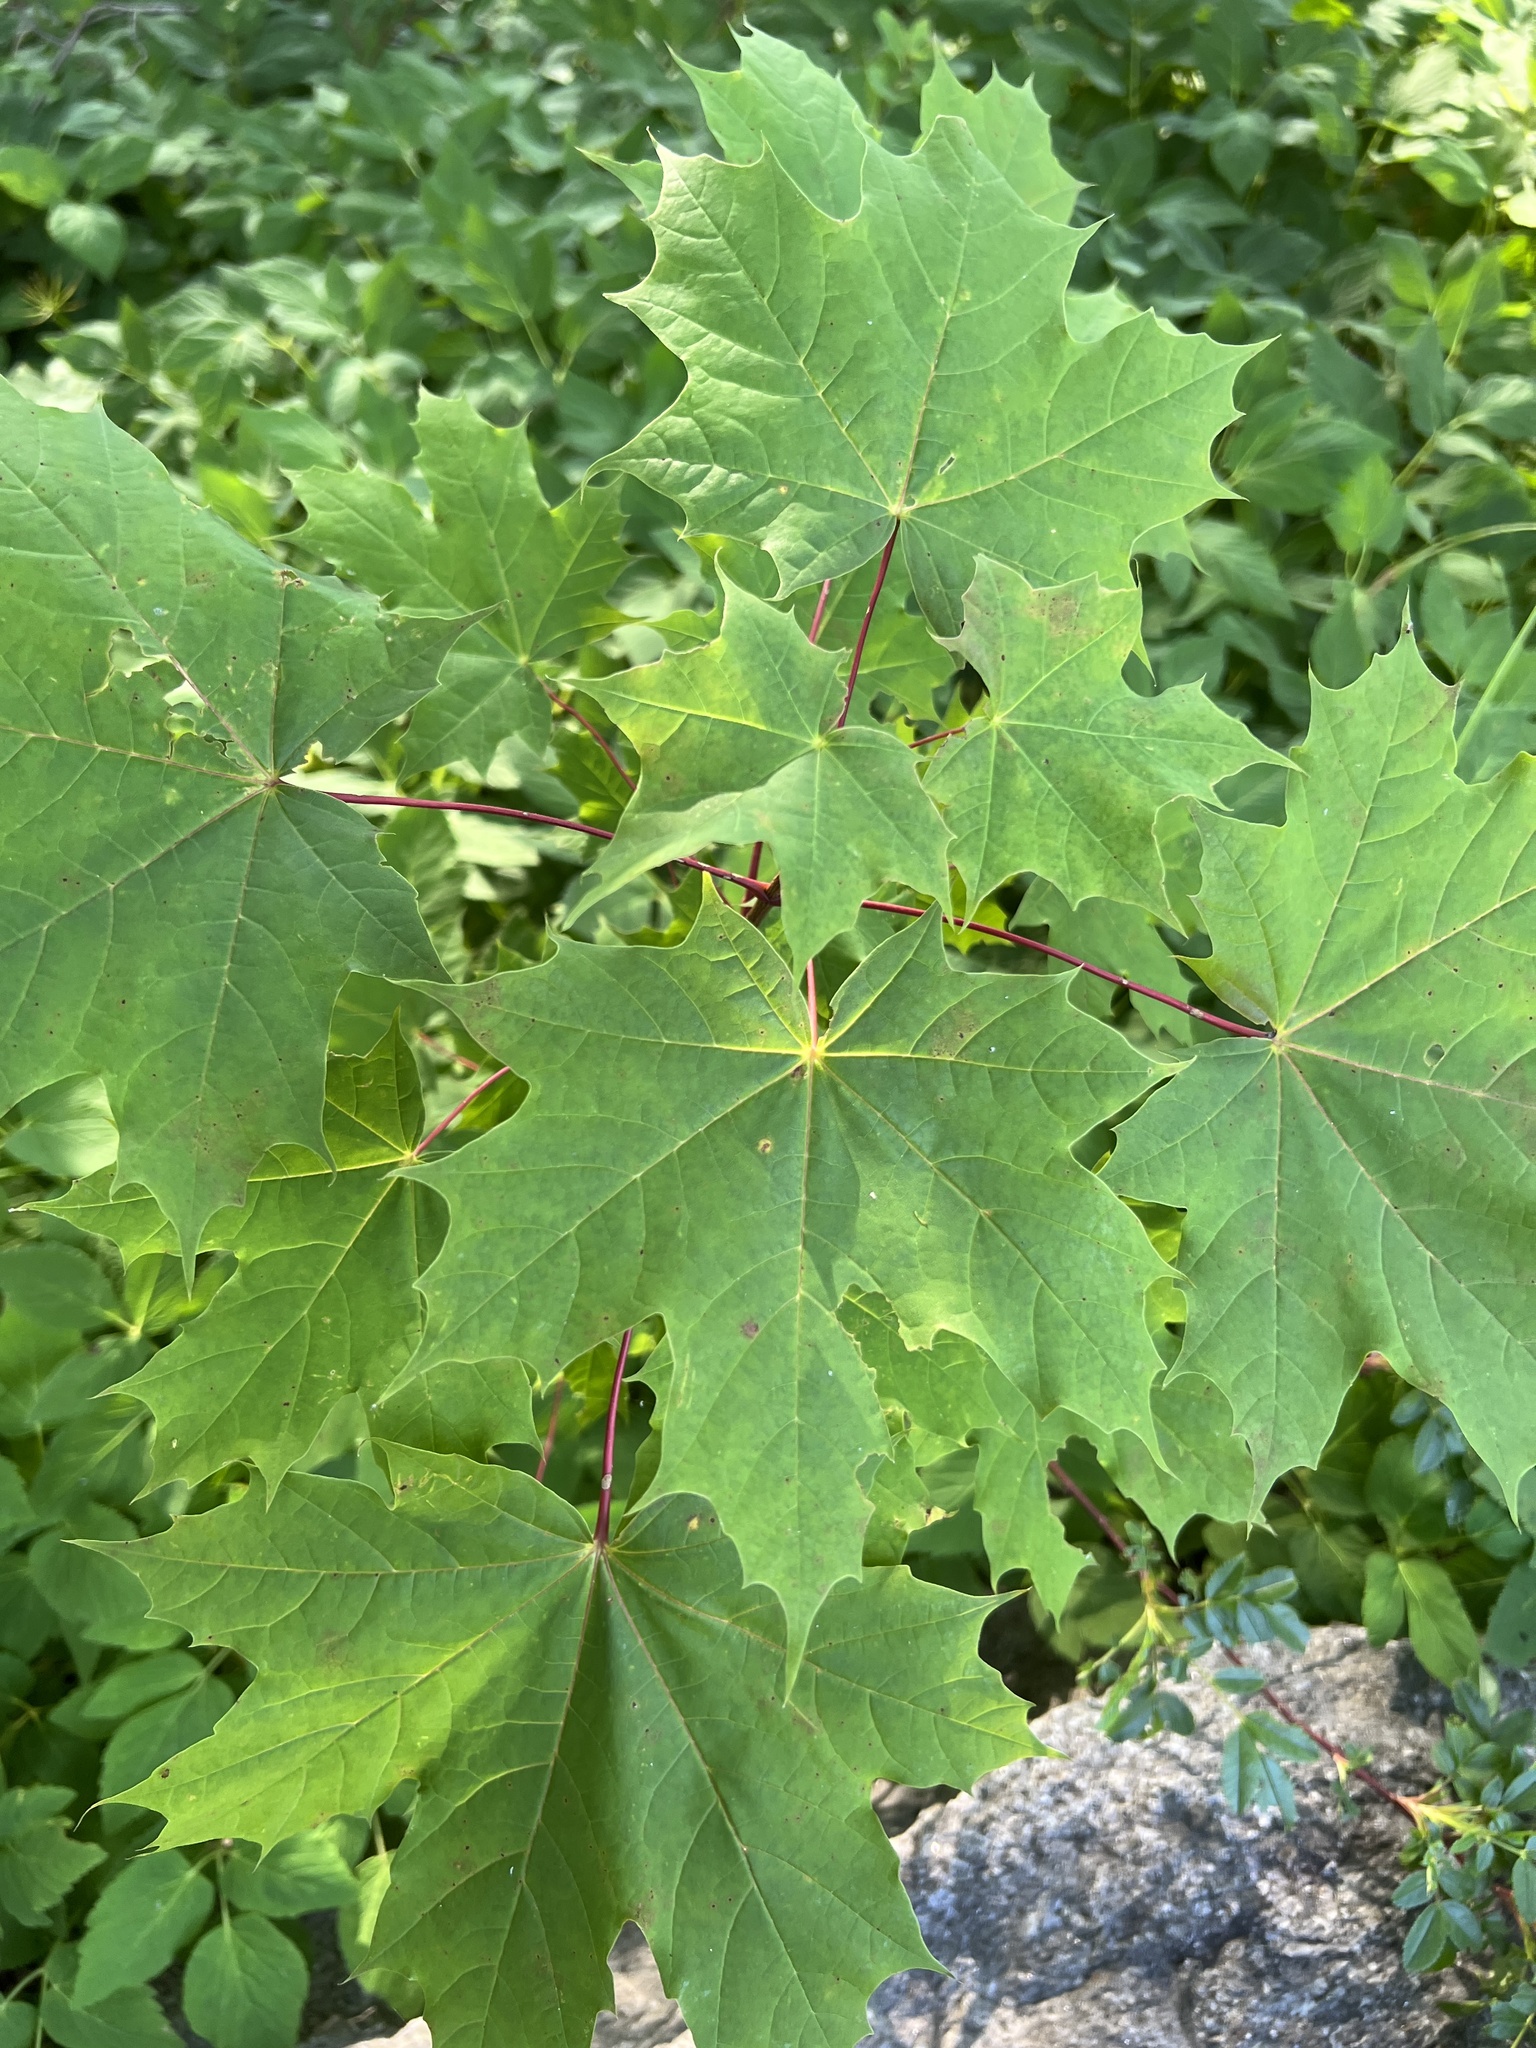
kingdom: Plantae
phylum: Tracheophyta
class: Magnoliopsida
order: Sapindales
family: Sapindaceae
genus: Acer
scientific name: Acer platanoides
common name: Norway maple
